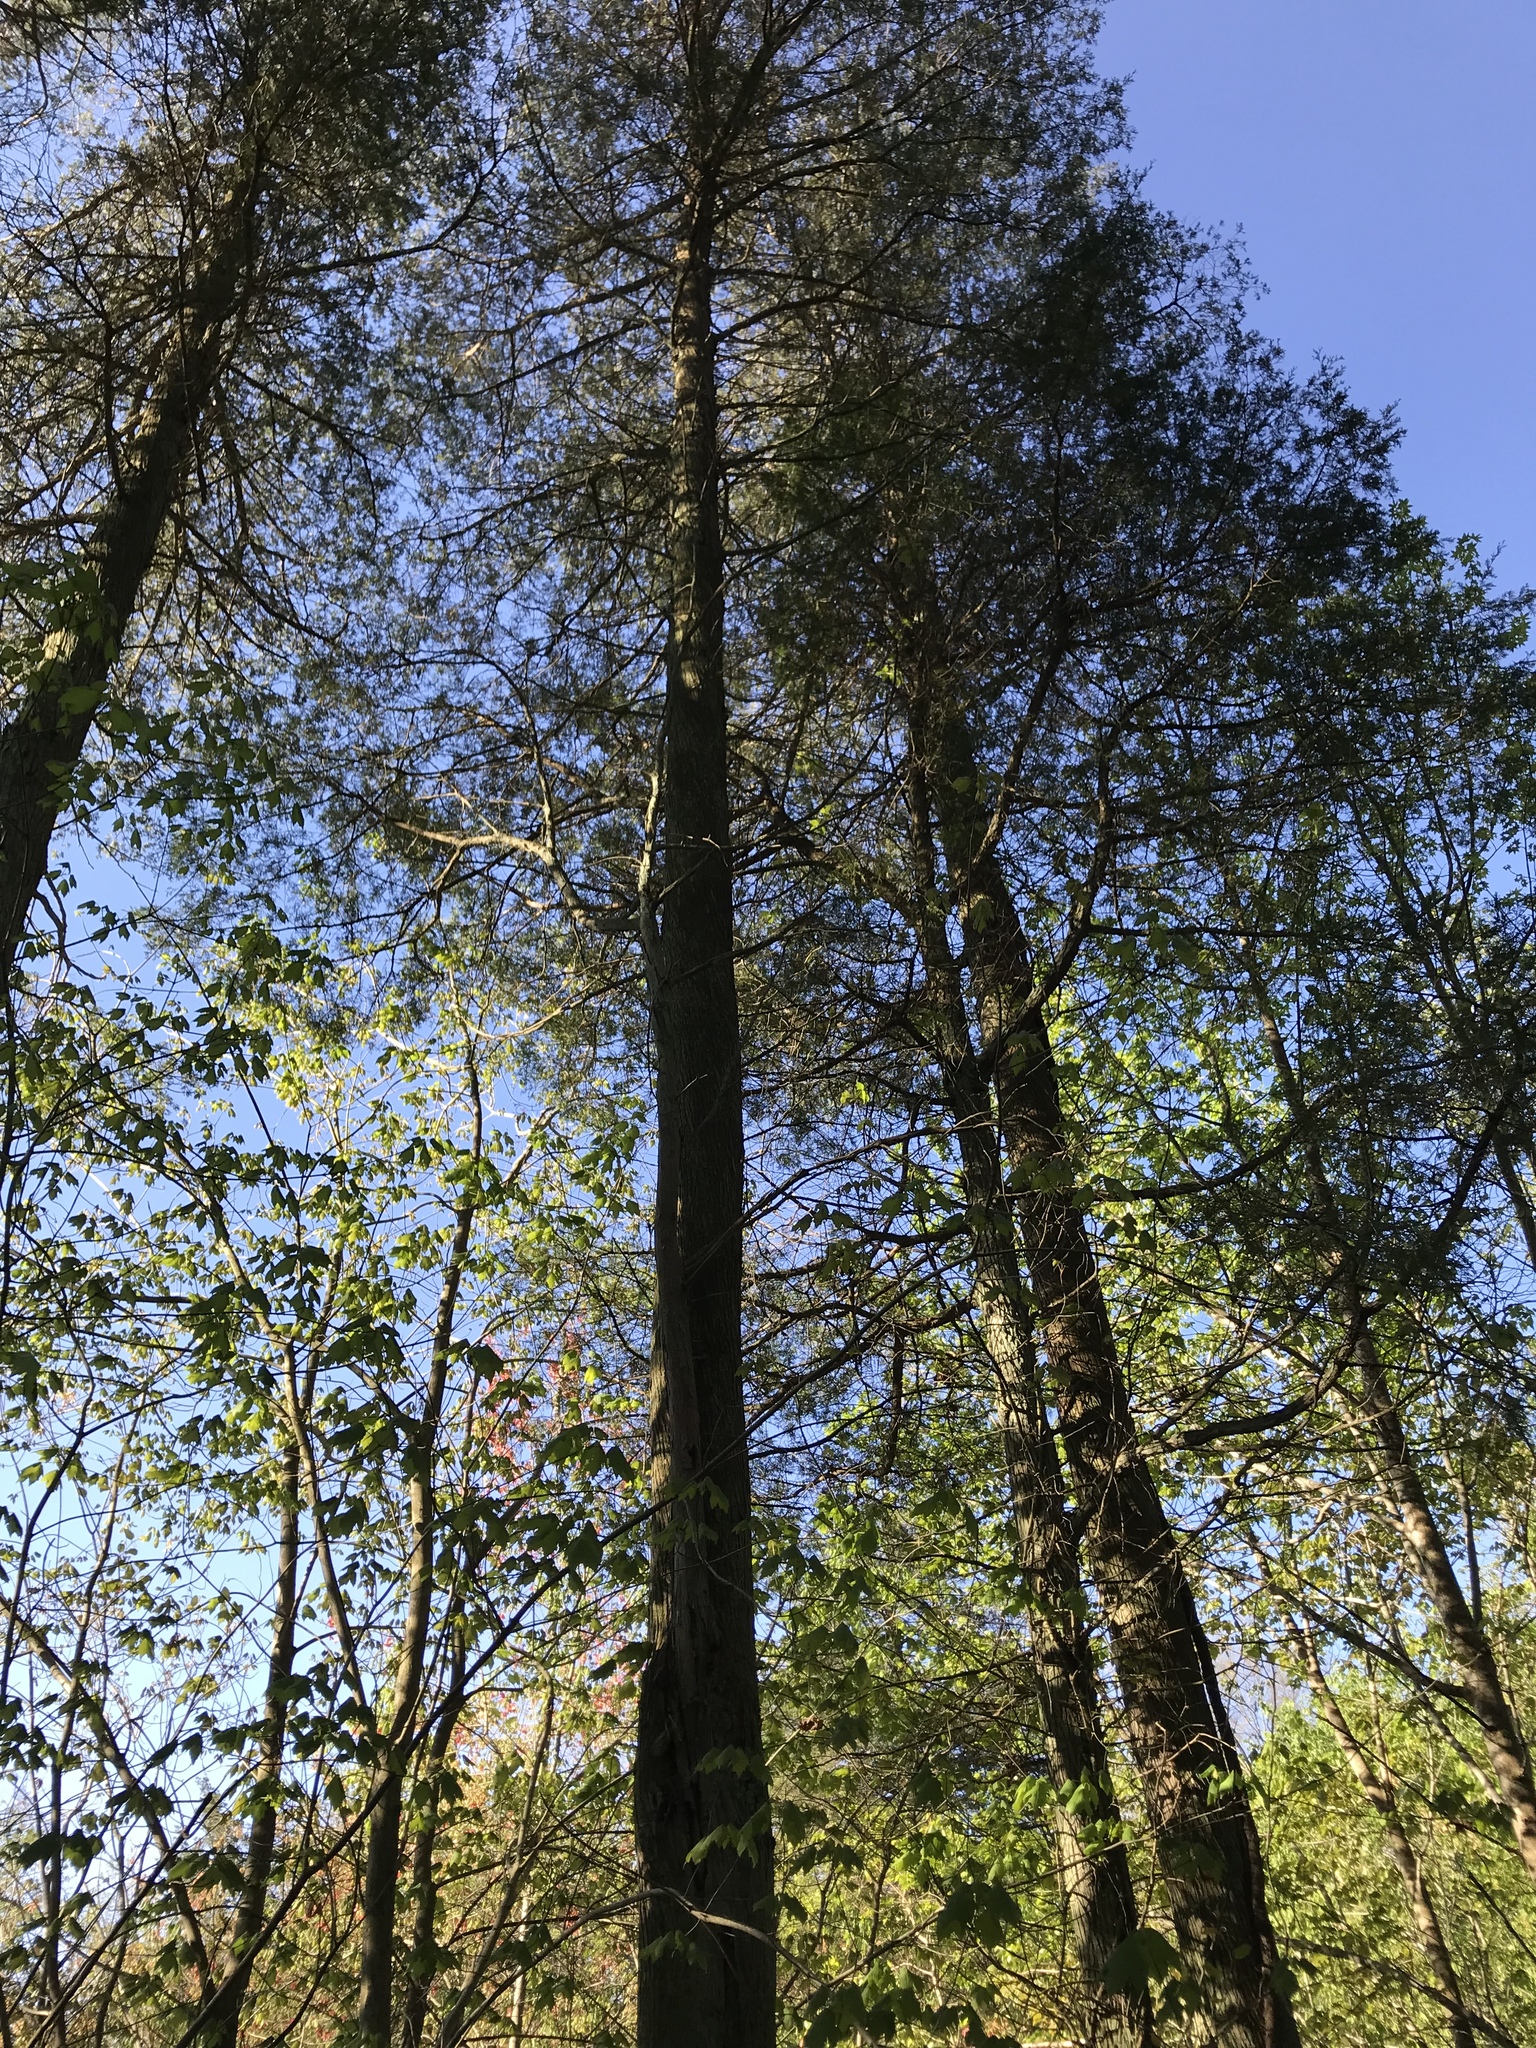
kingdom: Plantae
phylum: Tracheophyta
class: Pinopsida
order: Pinales
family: Cupressaceae
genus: Chamaecyparis
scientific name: Chamaecyparis thyoides
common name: Atlantic white cedar
